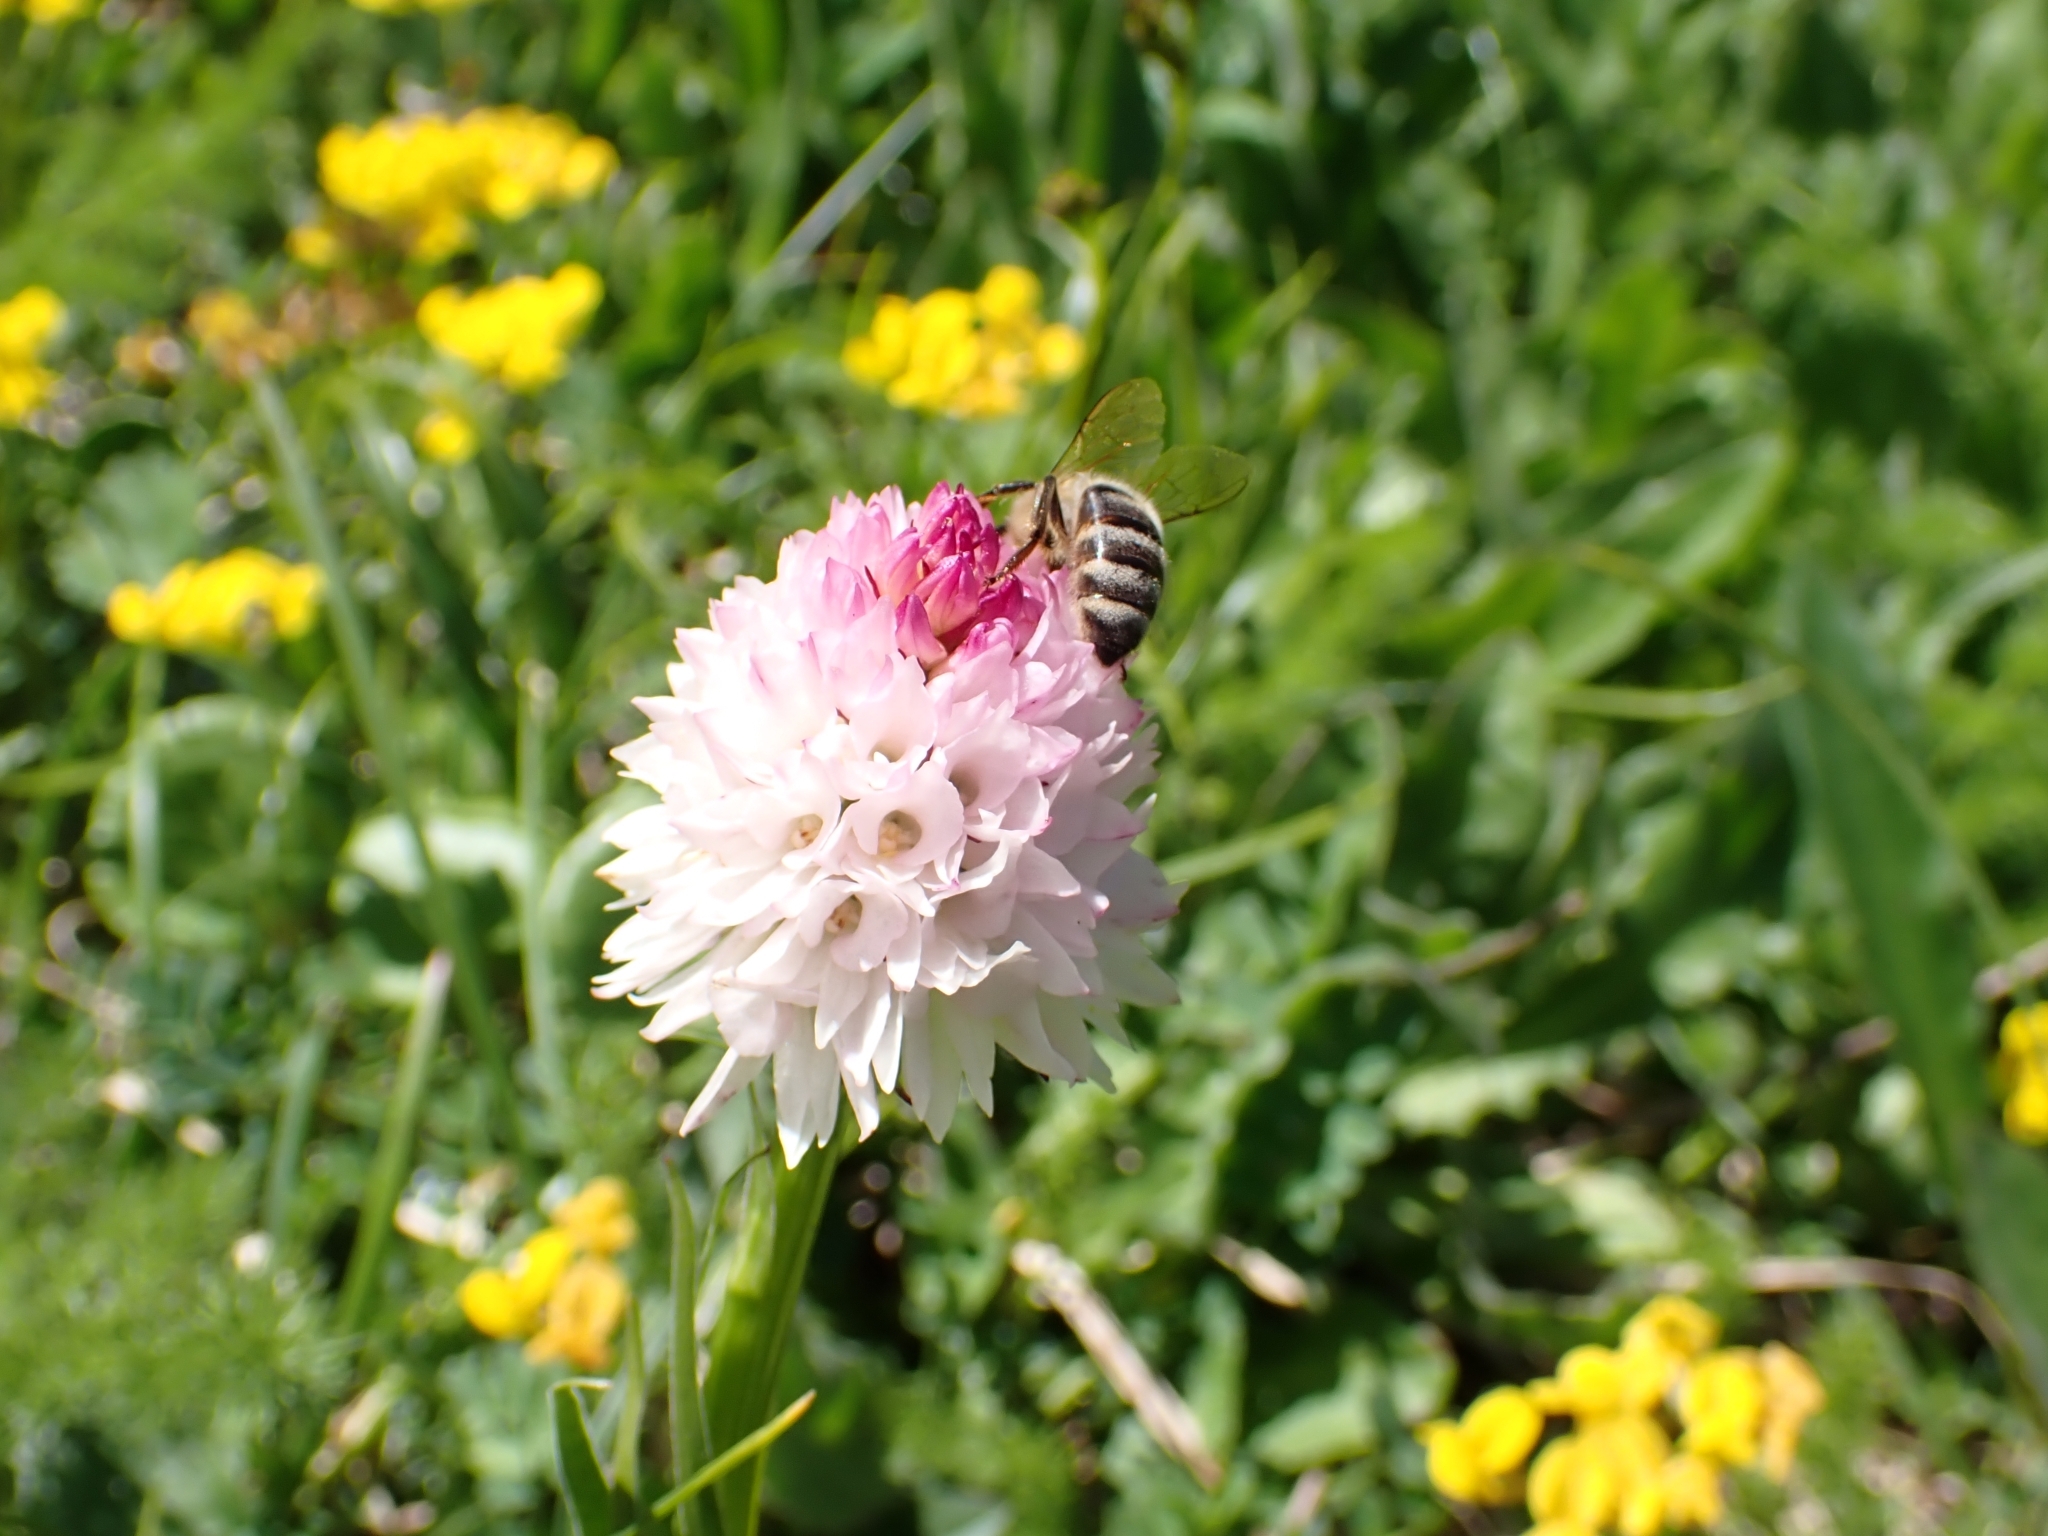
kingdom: Plantae
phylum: Tracheophyta
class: Liliopsida
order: Asparagales
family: Orchidaceae
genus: Gymnadenia
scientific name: Gymnadenia lithopolitanica
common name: Austrian gymnadenia
